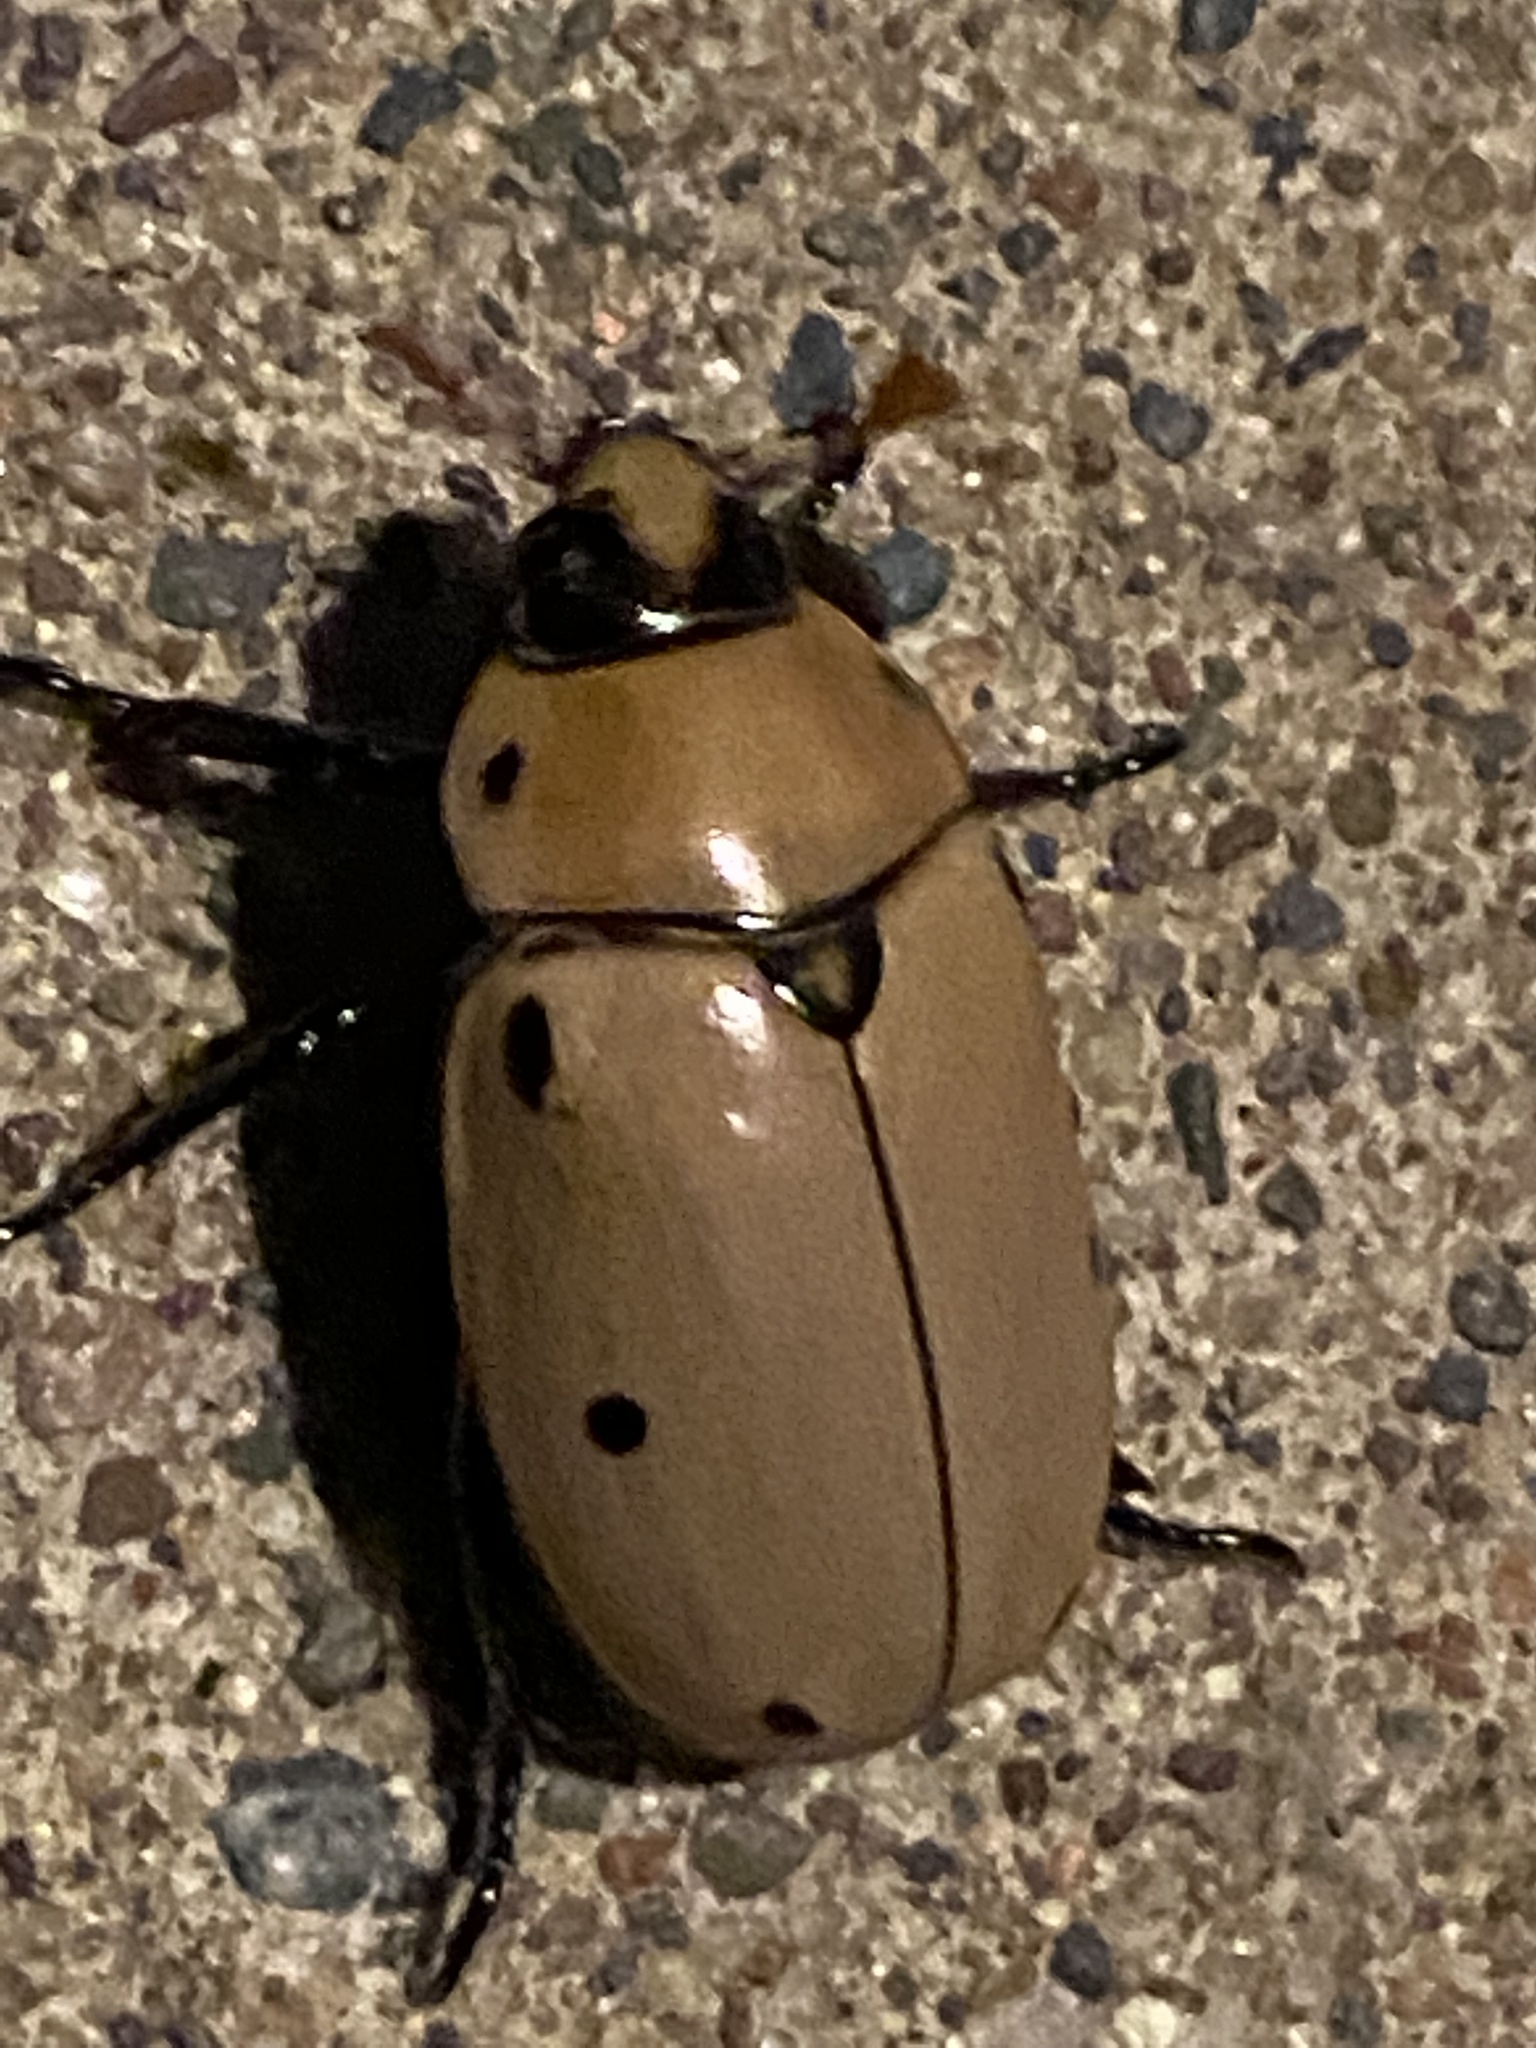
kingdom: Animalia
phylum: Arthropoda
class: Insecta
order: Coleoptera
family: Scarabaeidae
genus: Pelidnota
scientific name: Pelidnota punctata
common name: Grapevine beetle
